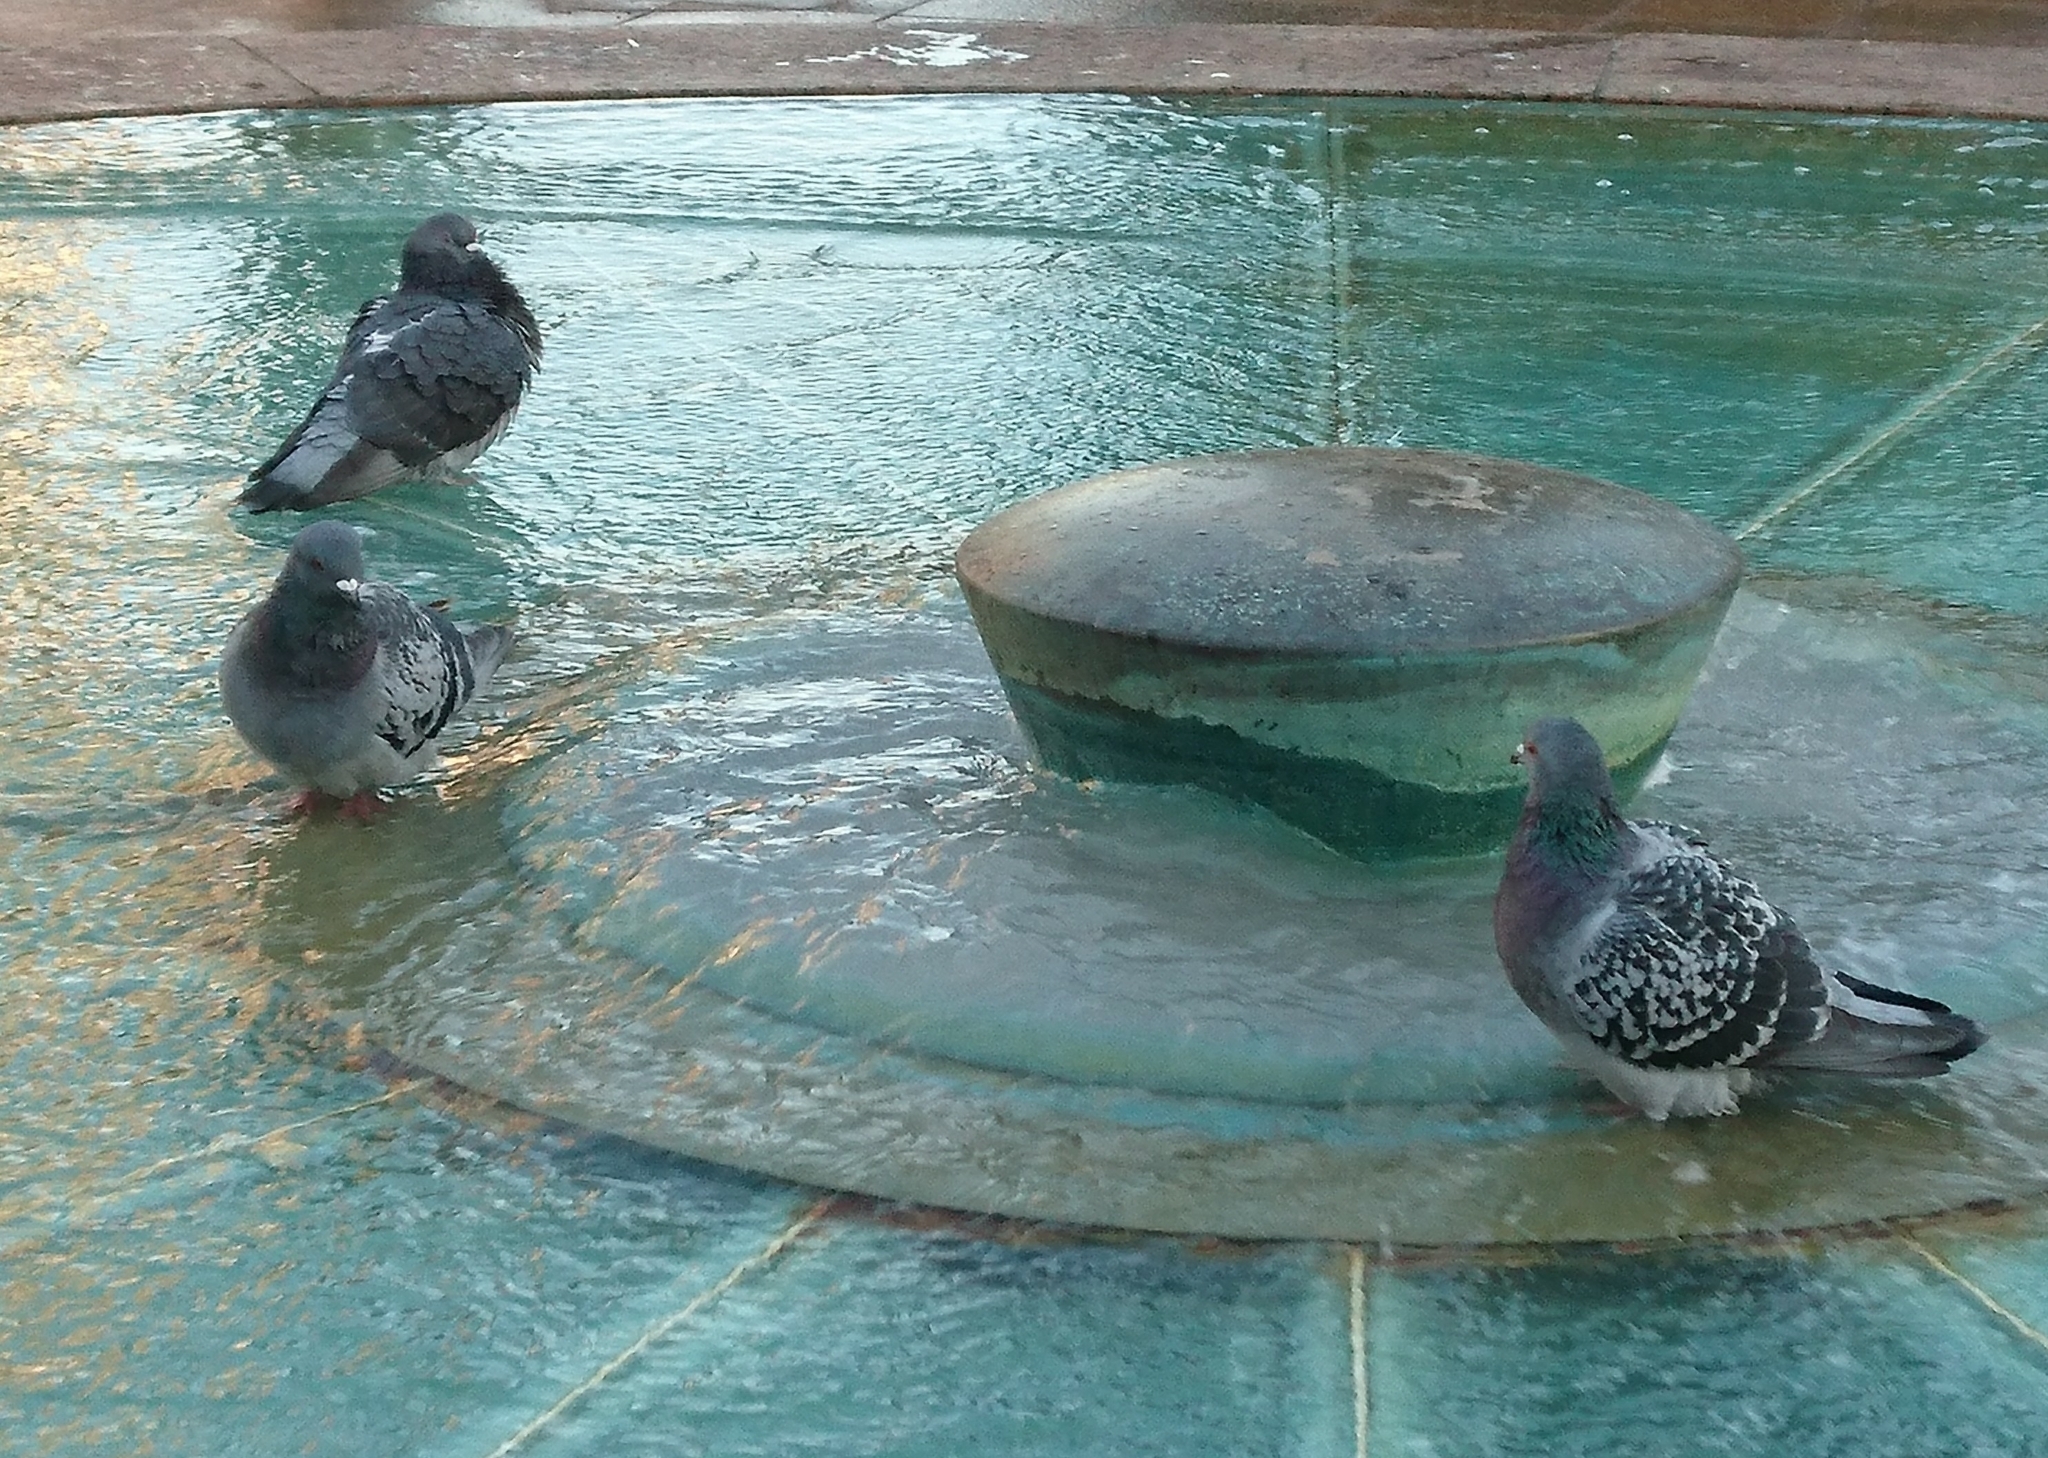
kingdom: Animalia
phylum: Chordata
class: Aves
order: Columbiformes
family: Columbidae
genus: Columba
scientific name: Columba livia
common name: Rock pigeon
